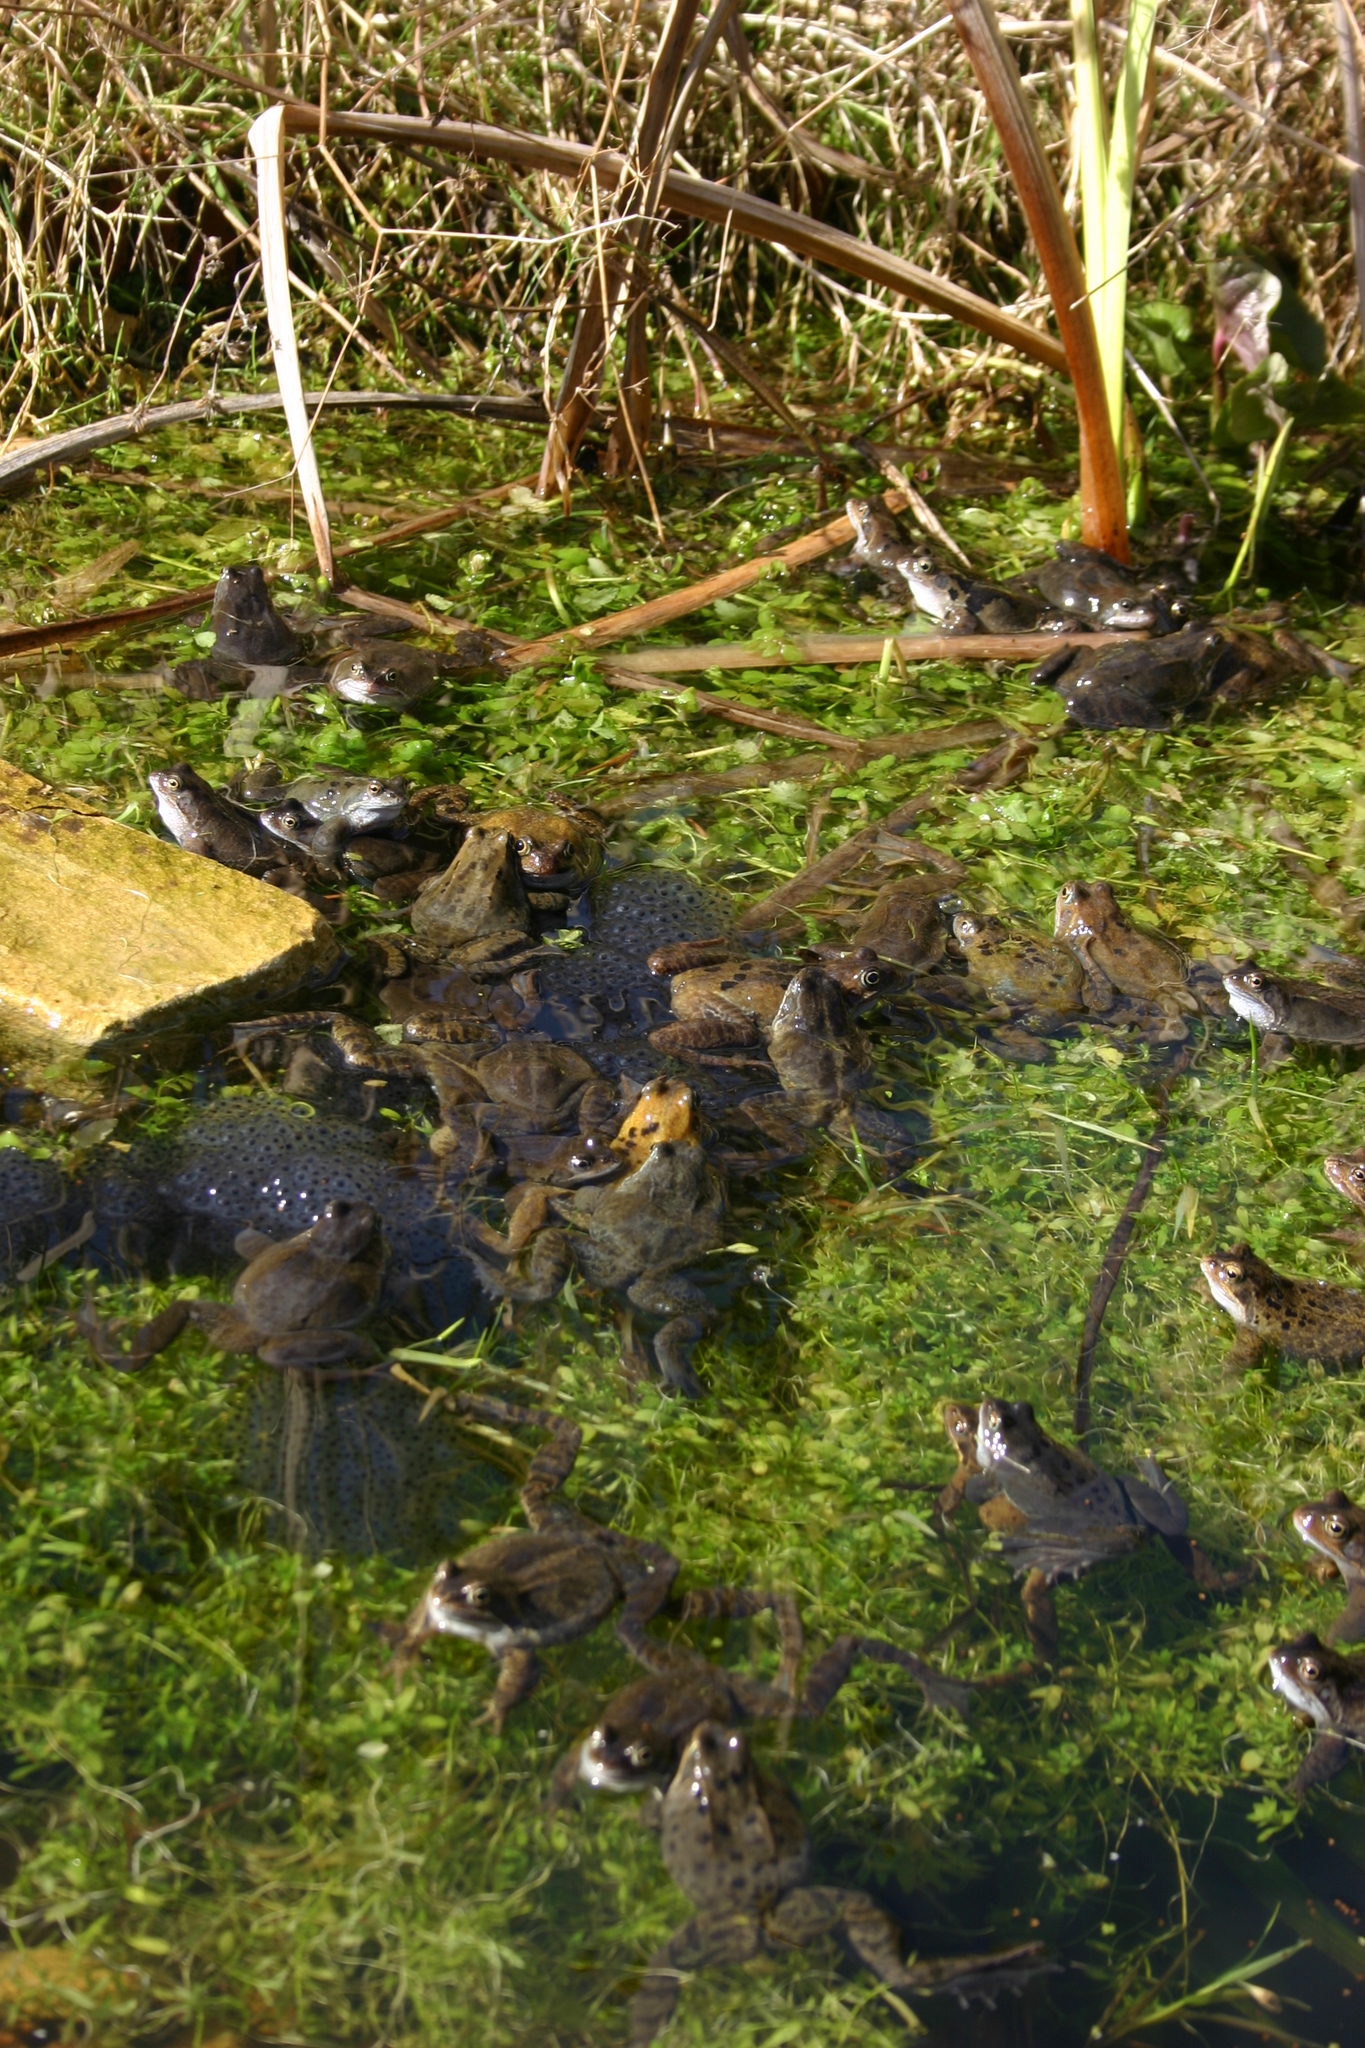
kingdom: Animalia
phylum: Chordata
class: Amphibia
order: Anura
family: Ranidae
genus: Rana
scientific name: Rana temporaria
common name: Common frog
